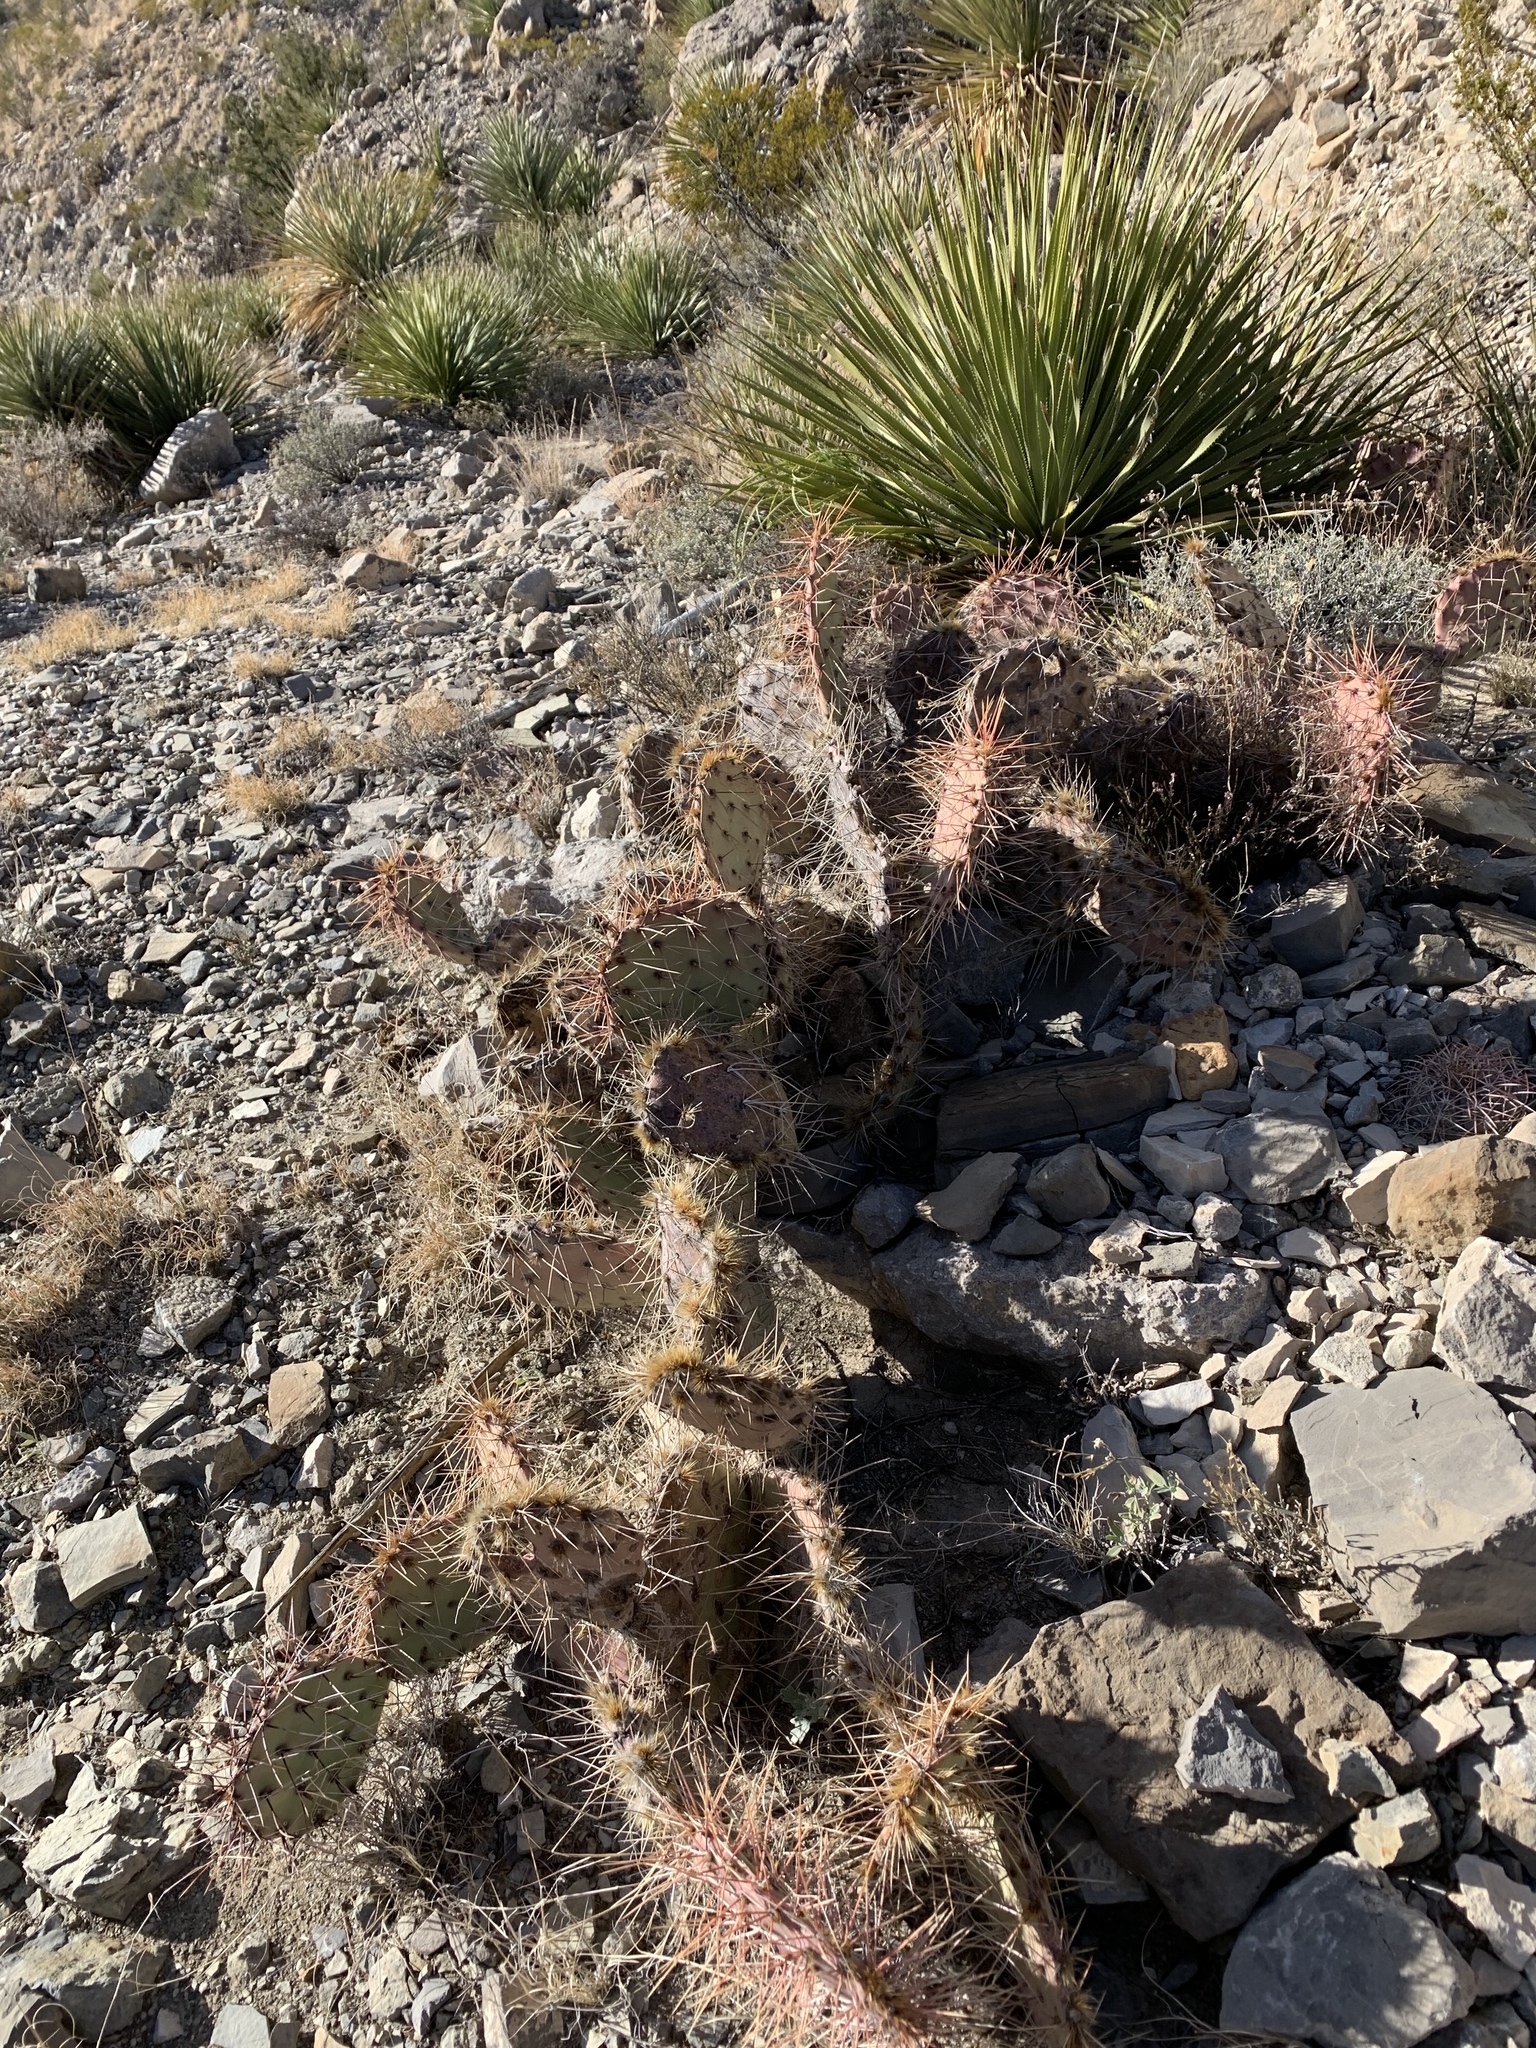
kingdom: Plantae
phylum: Tracheophyta
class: Magnoliopsida
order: Caryophyllales
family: Cactaceae
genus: Opuntia
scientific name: Opuntia phaeacantha
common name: New mexico prickly-pear
